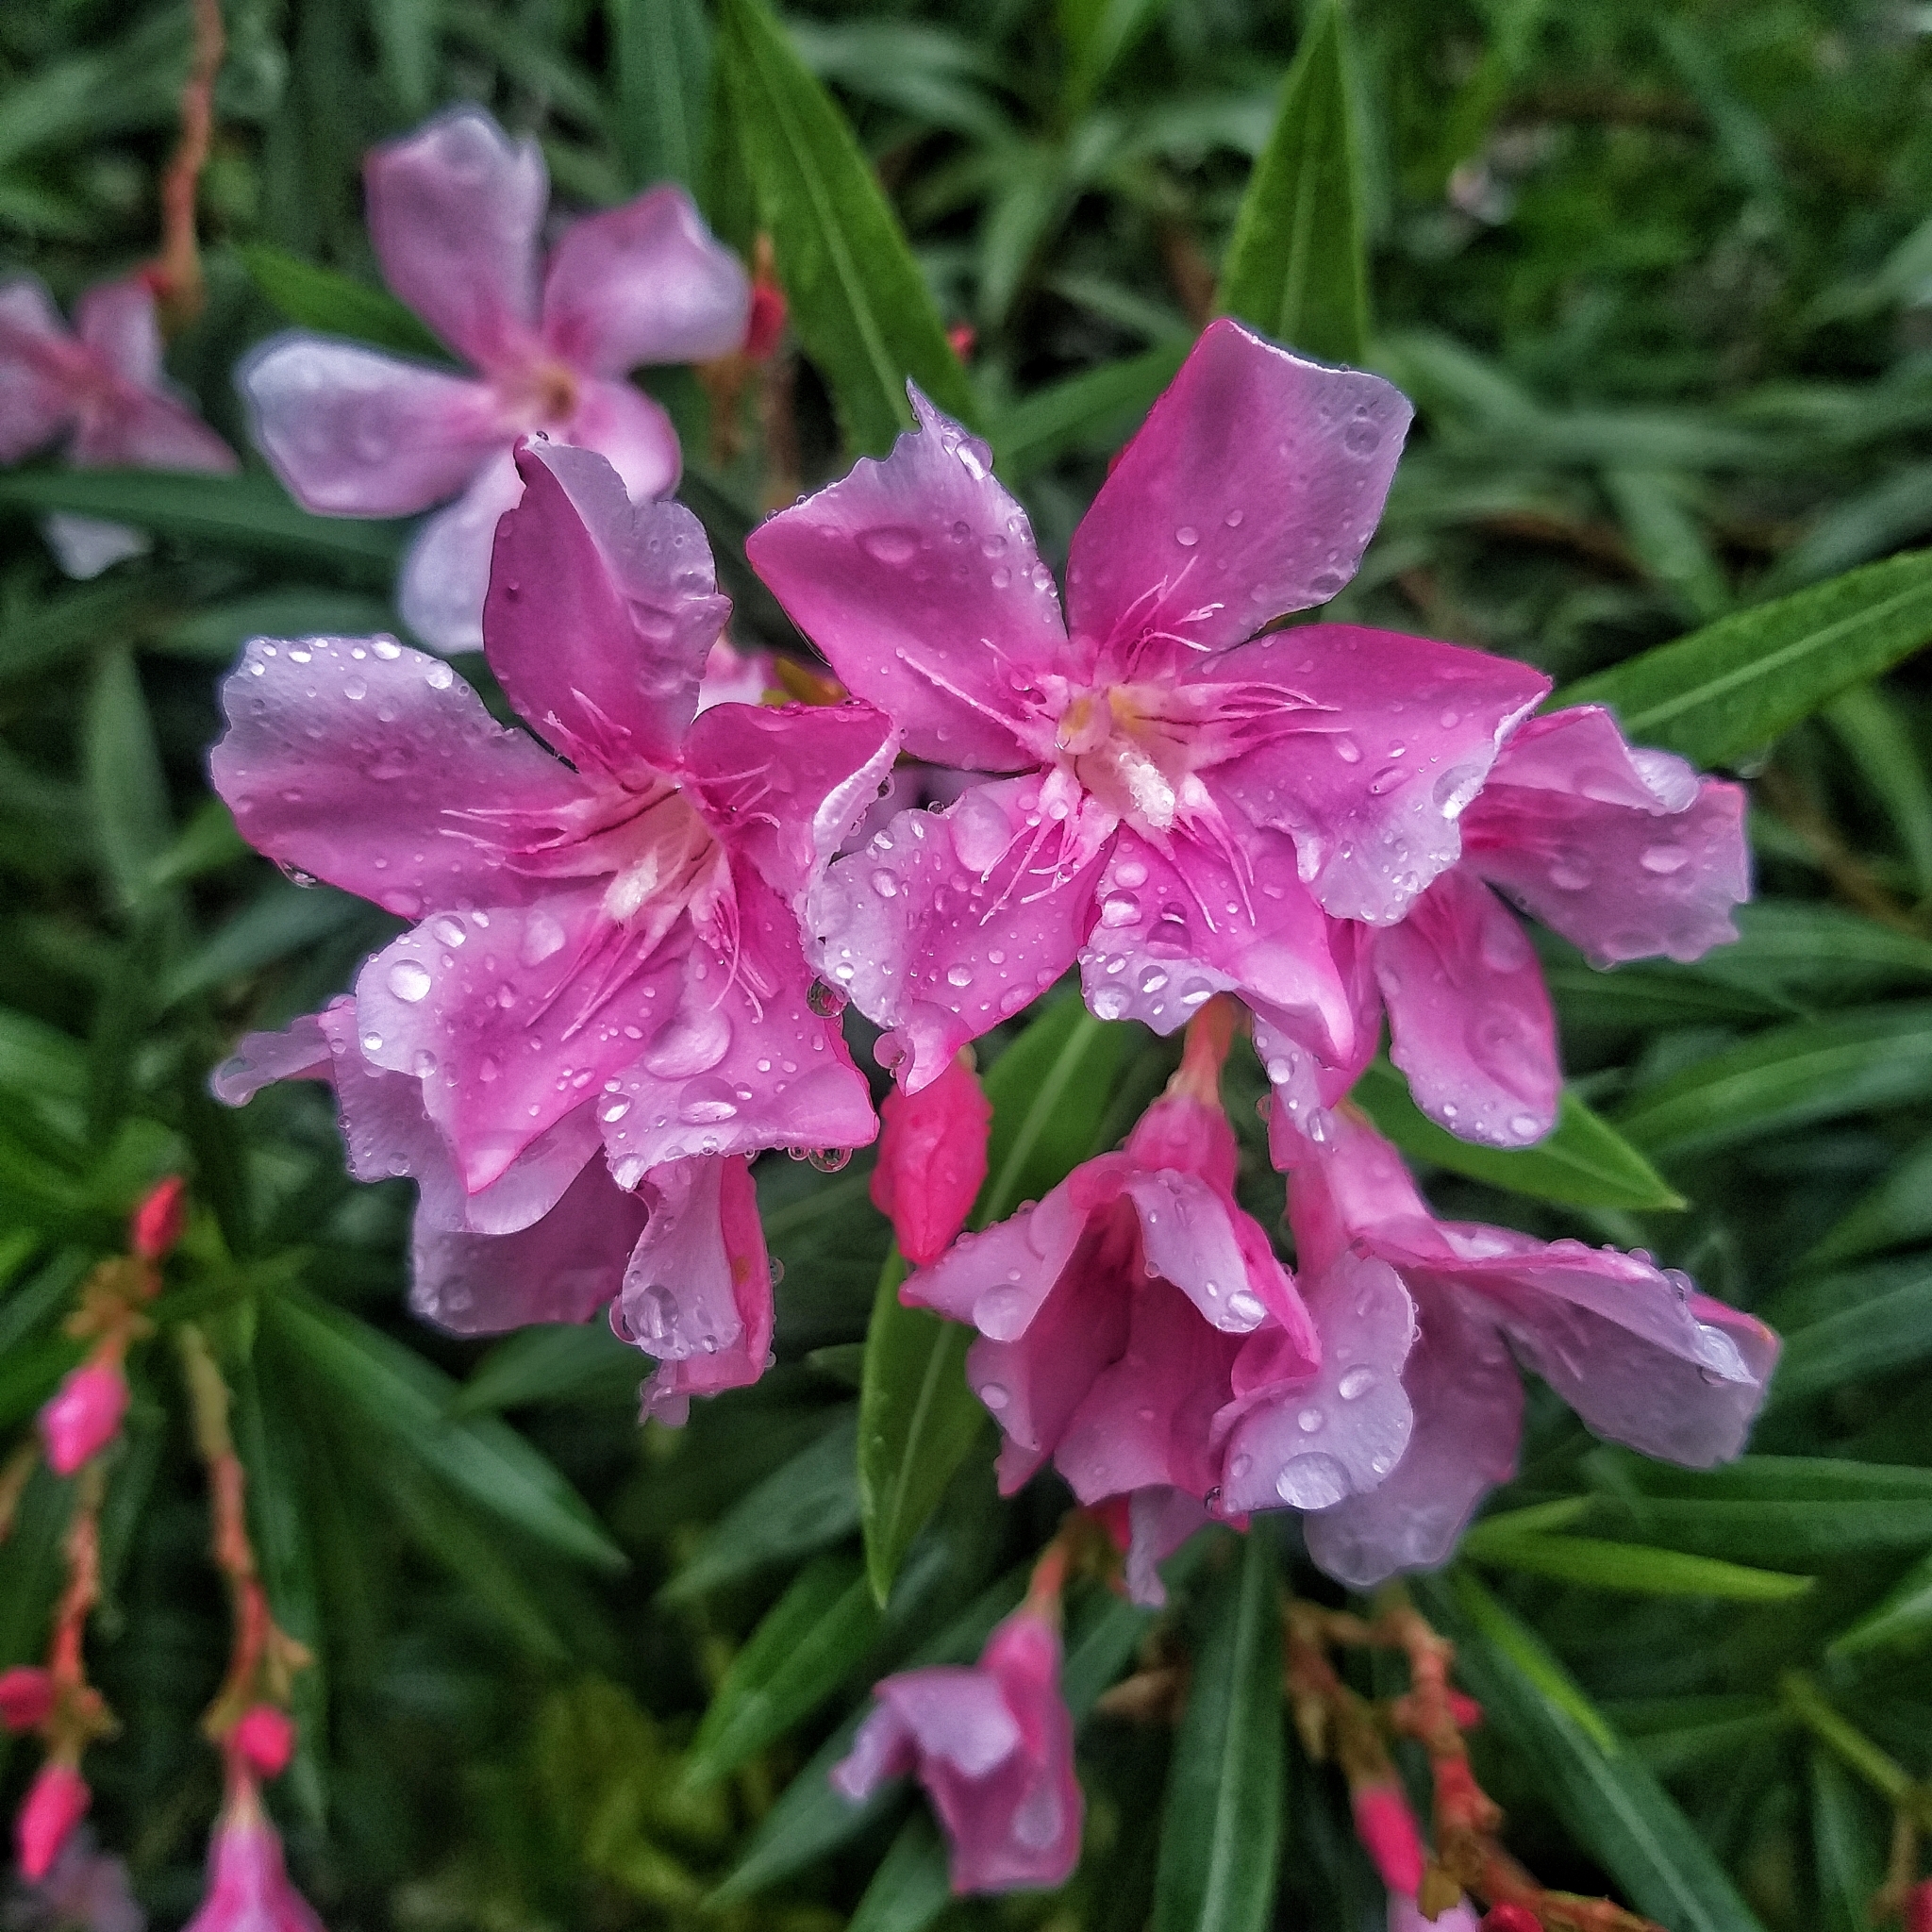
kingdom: Plantae
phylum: Tracheophyta
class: Magnoliopsida
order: Gentianales
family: Apocynaceae
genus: Nerium
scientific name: Nerium oleander
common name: Oleander
